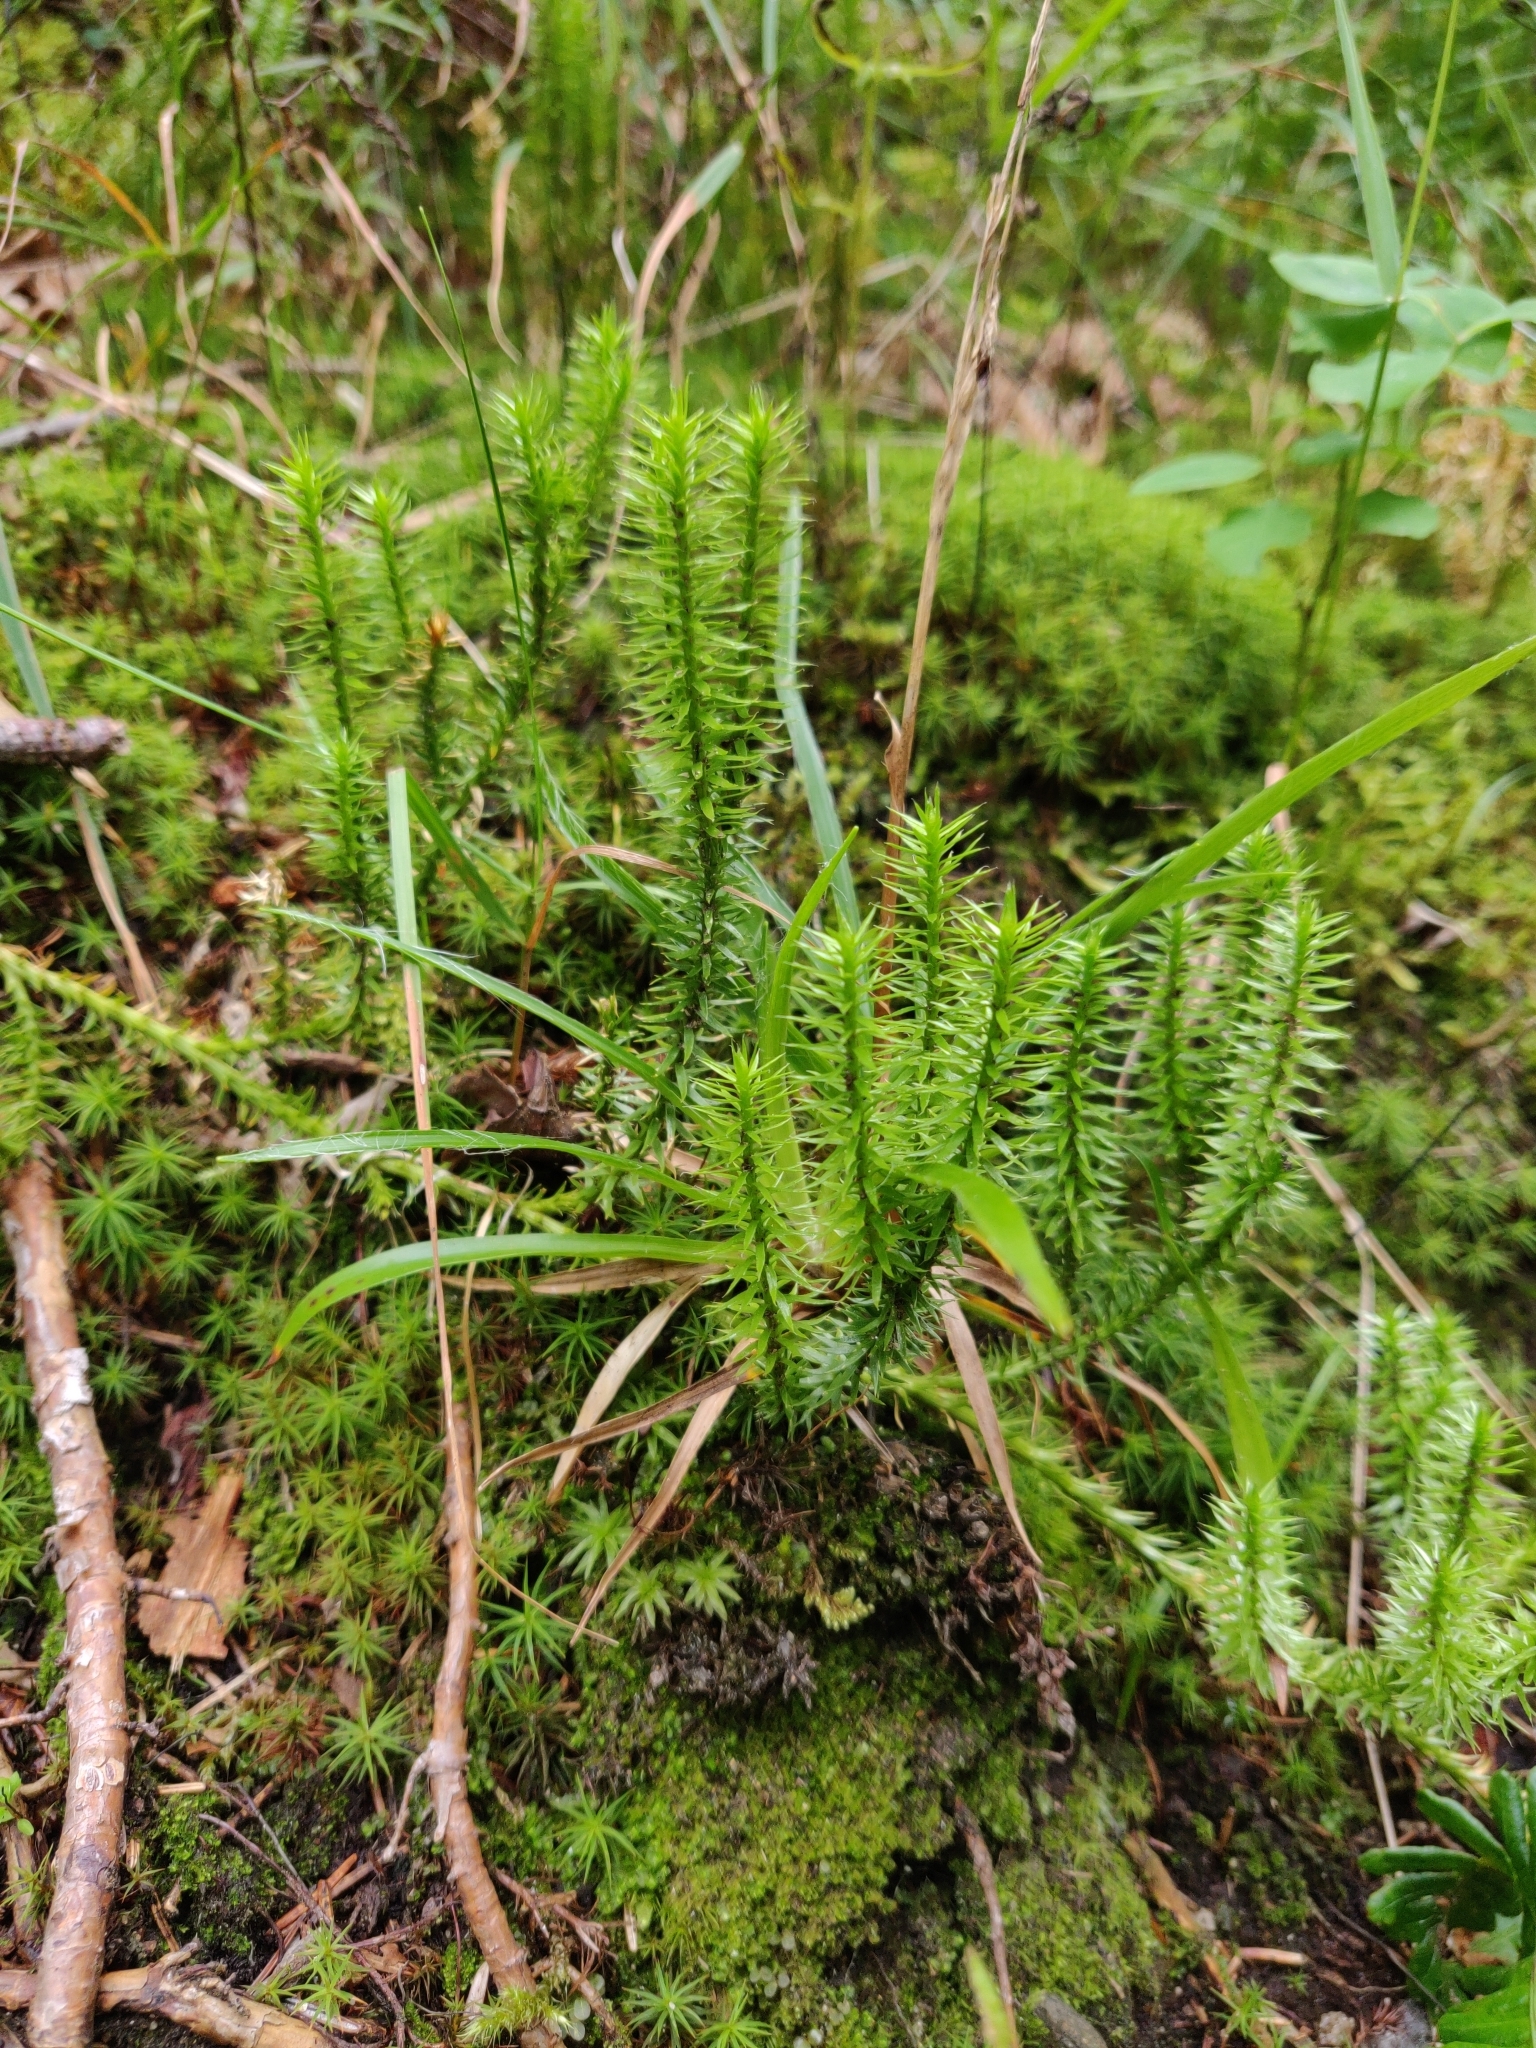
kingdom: Plantae
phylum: Tracheophyta
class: Lycopodiopsida
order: Lycopodiales
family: Lycopodiaceae
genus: Spinulum
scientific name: Spinulum annotinum
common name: Interrupted club-moss
